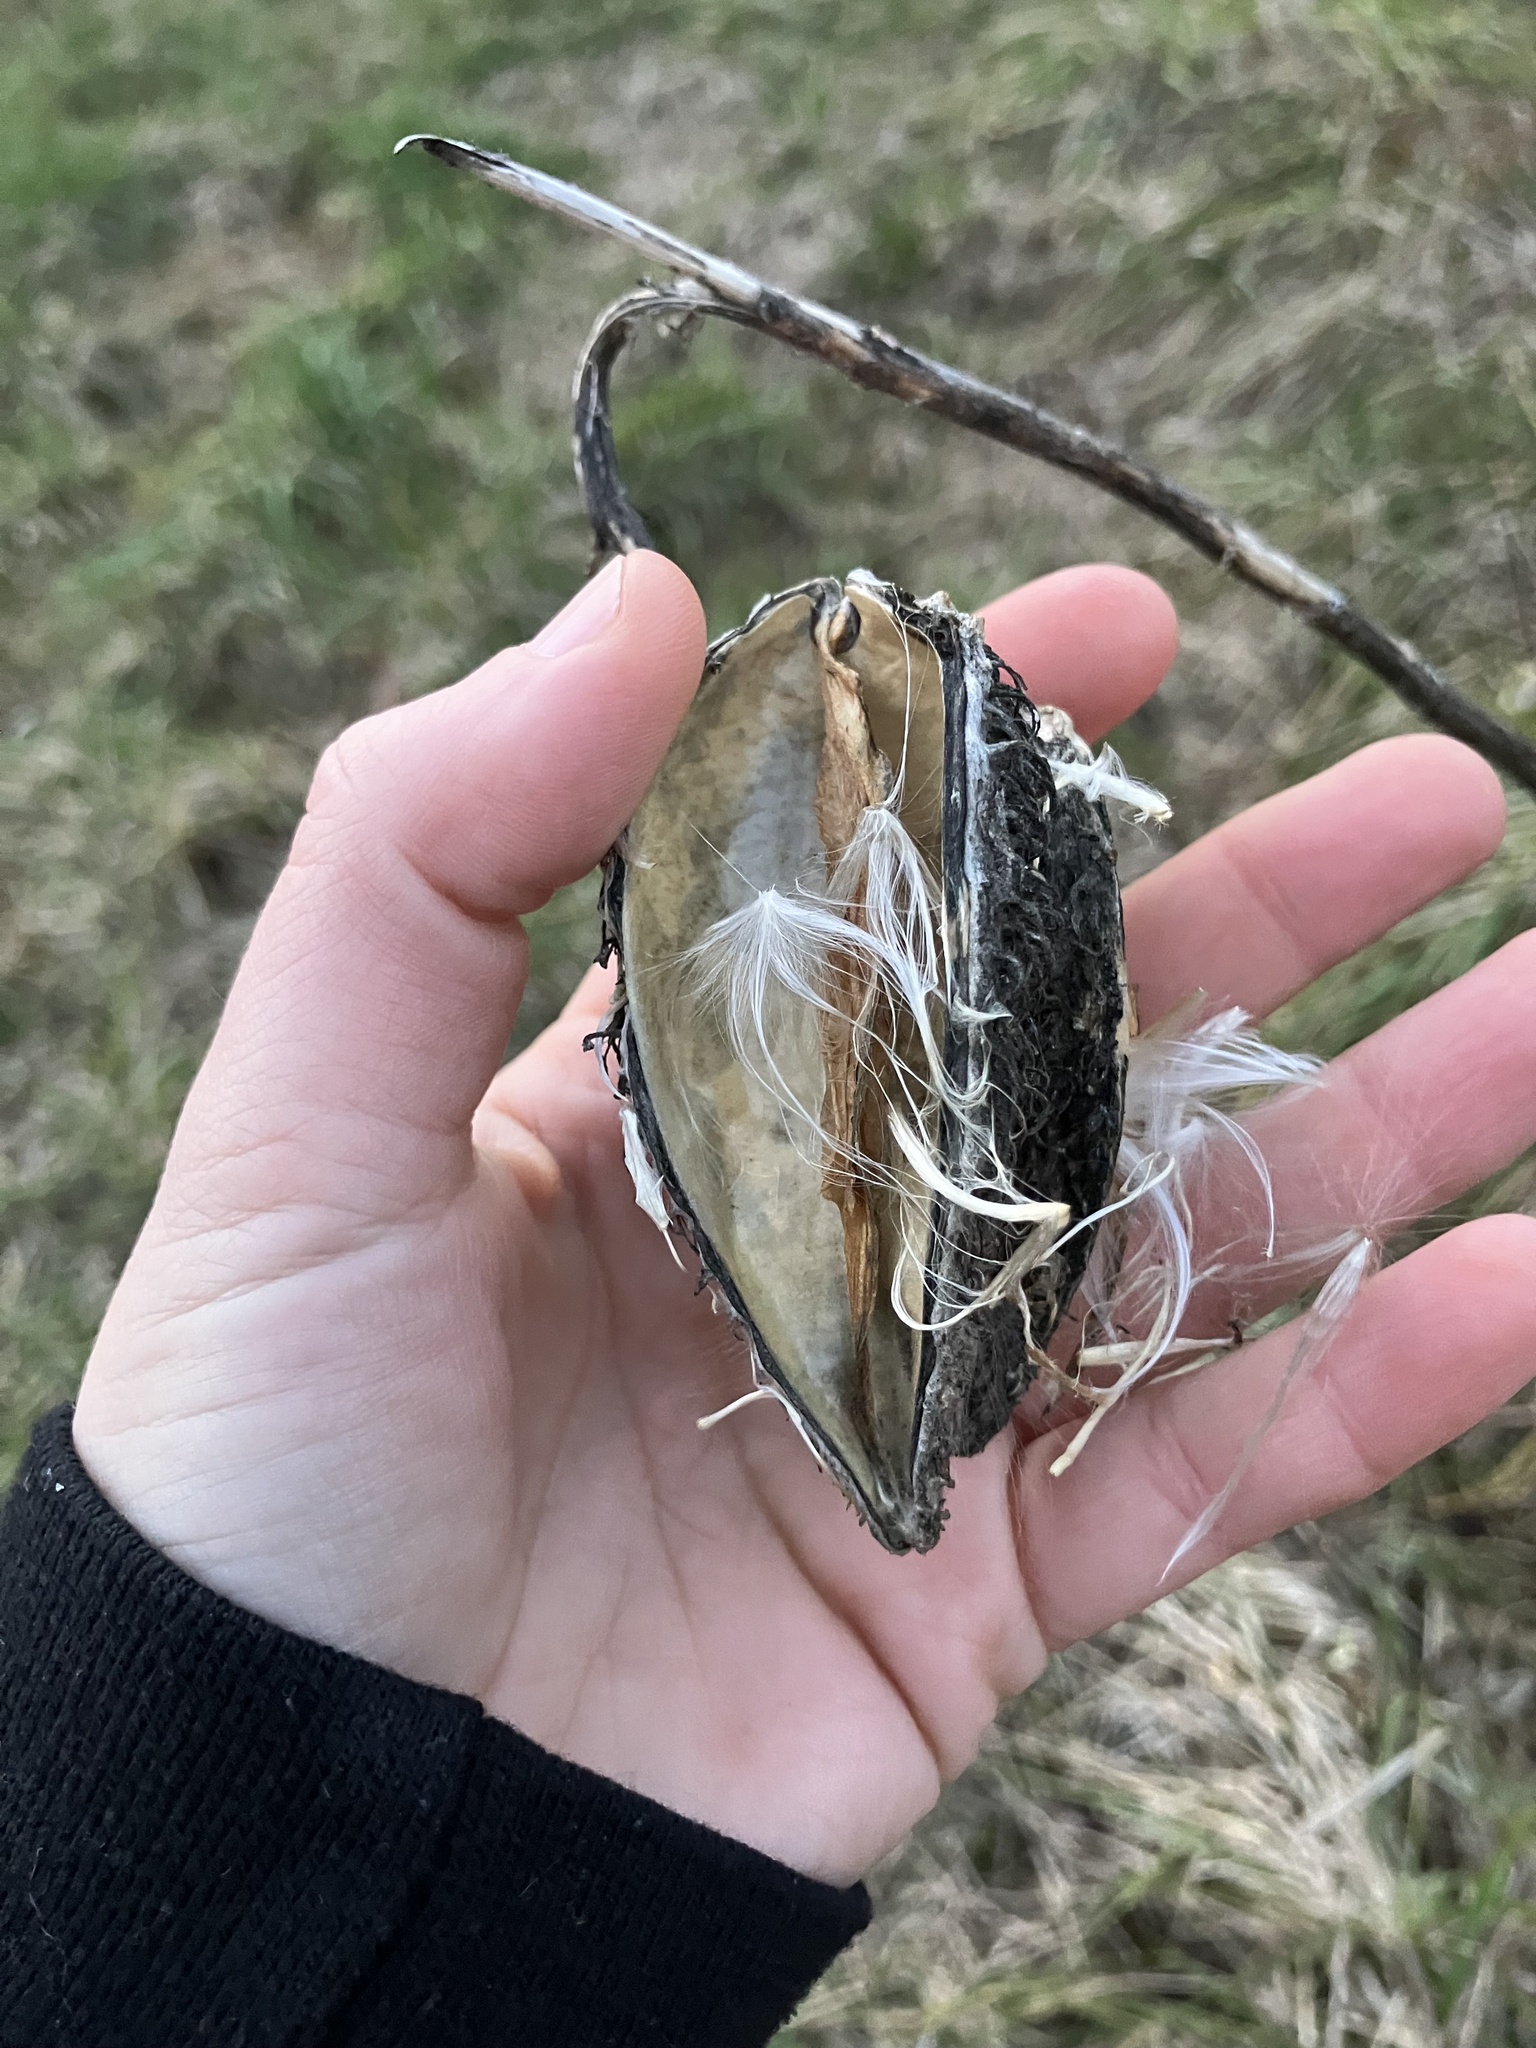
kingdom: Plantae
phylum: Tracheophyta
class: Magnoliopsida
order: Gentianales
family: Apocynaceae
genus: Asclepias
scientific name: Asclepias syriaca
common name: Common milkweed
